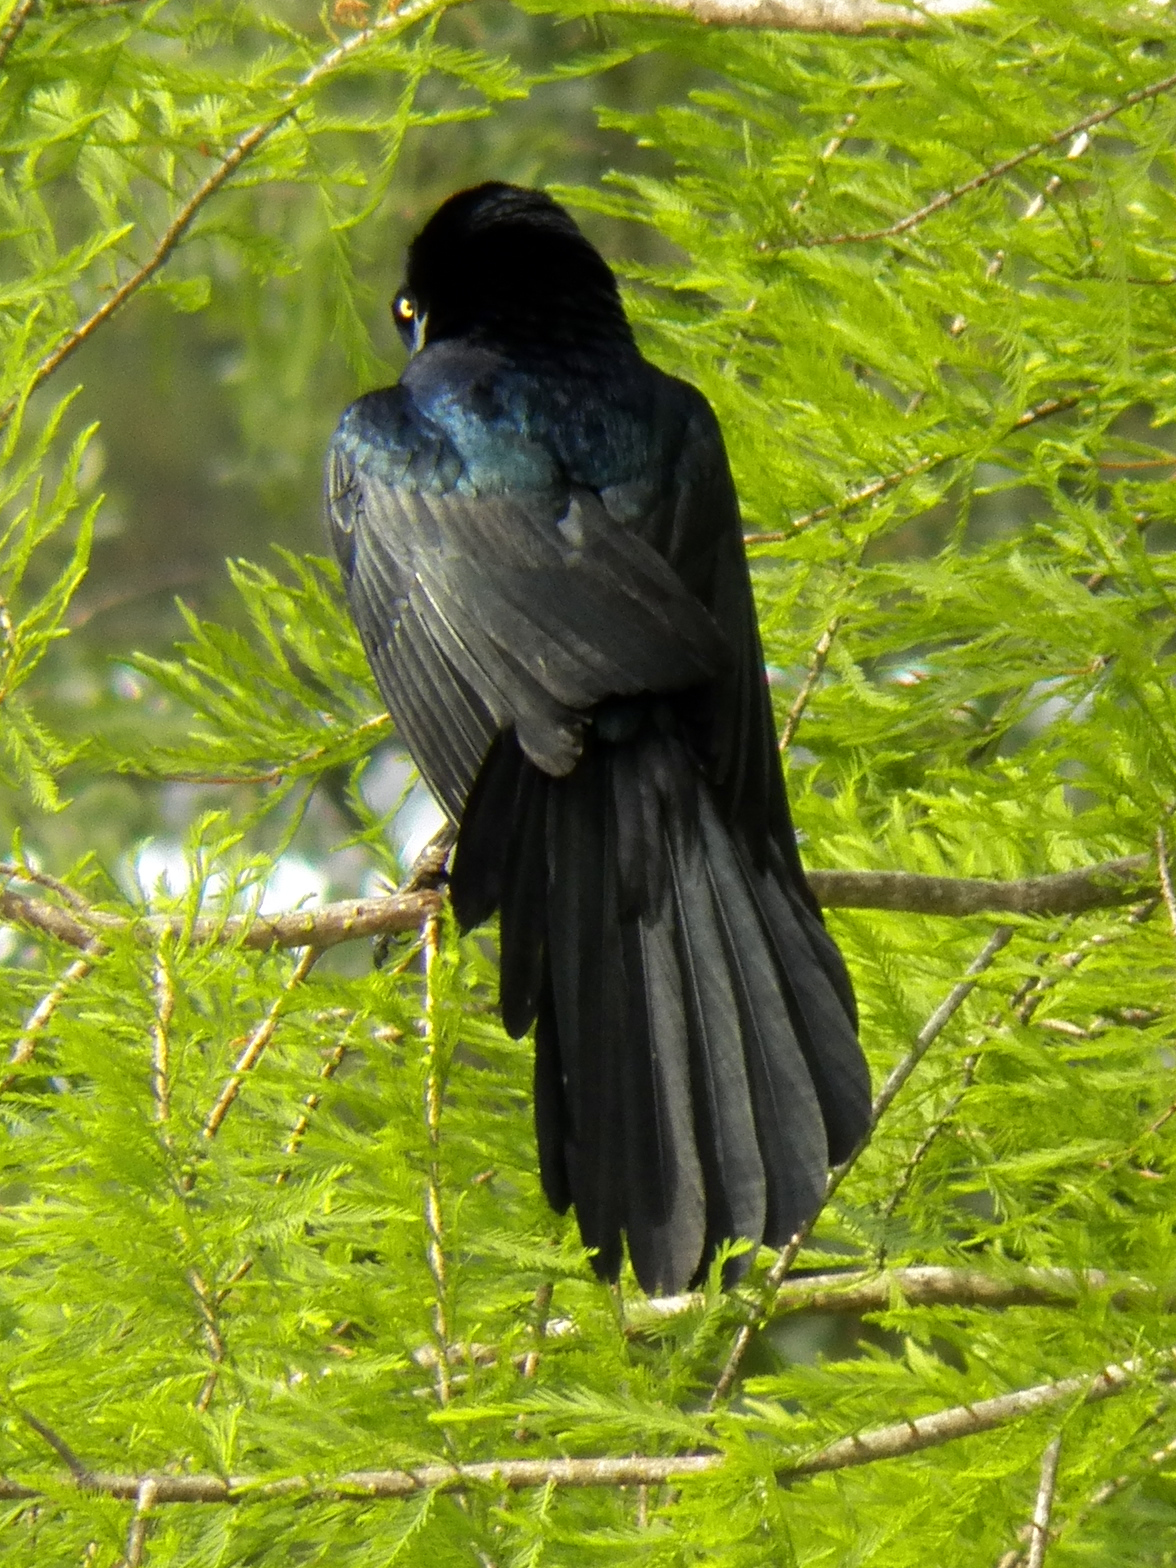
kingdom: Animalia
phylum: Chordata
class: Aves
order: Passeriformes
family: Icteridae
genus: Quiscalus
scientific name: Quiscalus mexicanus
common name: Great-tailed grackle
